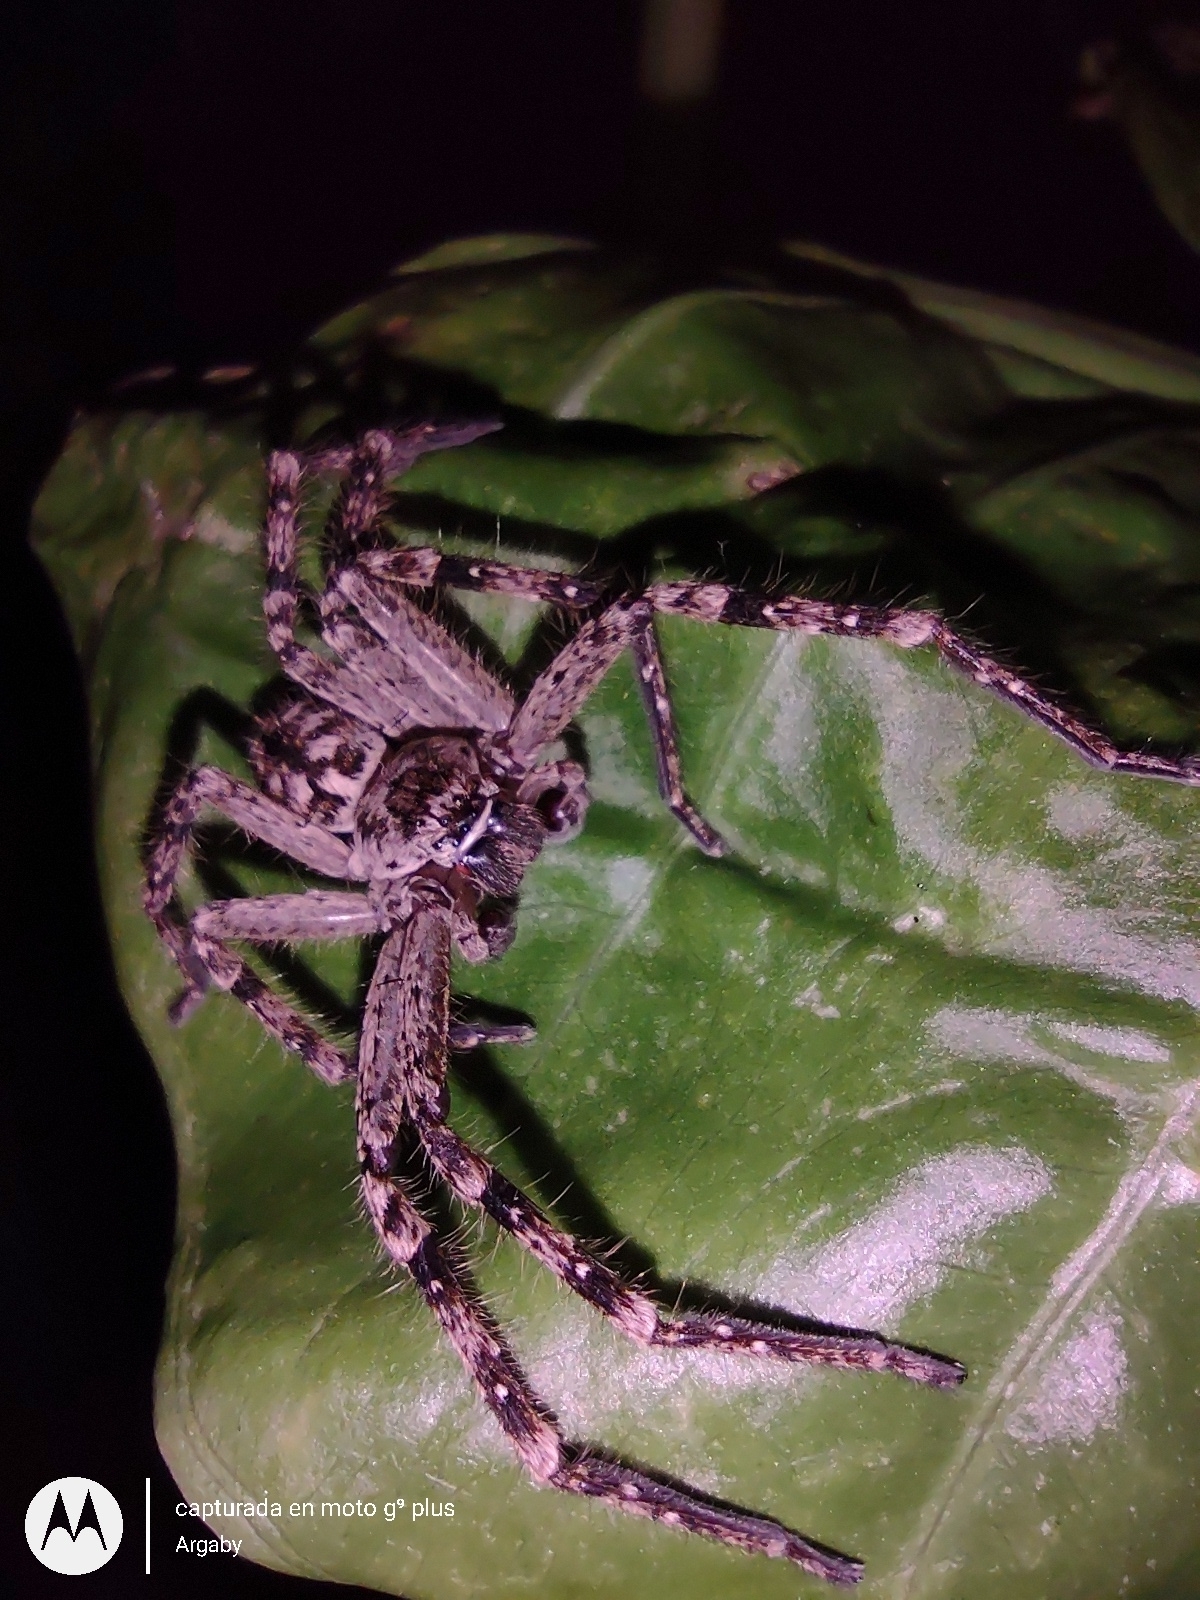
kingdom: Animalia
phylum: Arthropoda
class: Arachnida
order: Araneae
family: Sparassidae
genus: Polybetes
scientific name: Polybetes rapidus
